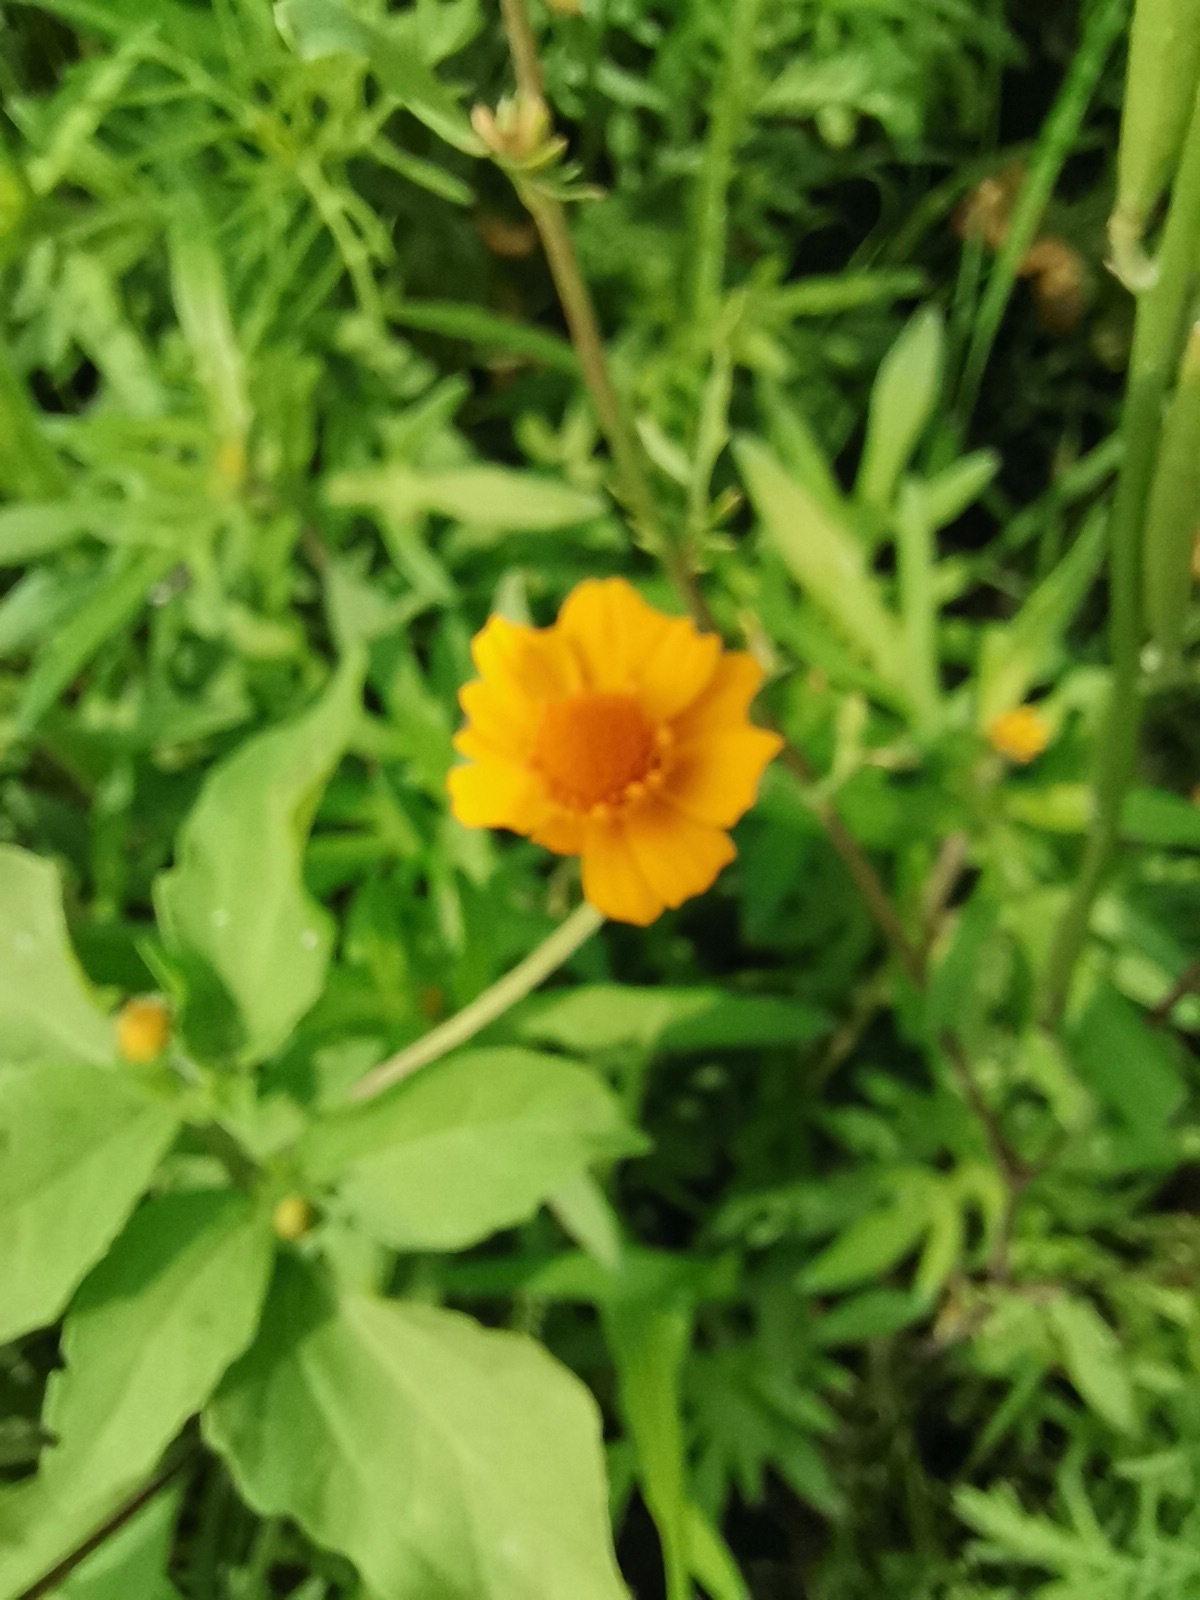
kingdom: Plantae
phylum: Tracheophyta
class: Magnoliopsida
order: Asterales
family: Asteraceae
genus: Melampodium
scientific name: Melampodium divaricatum
